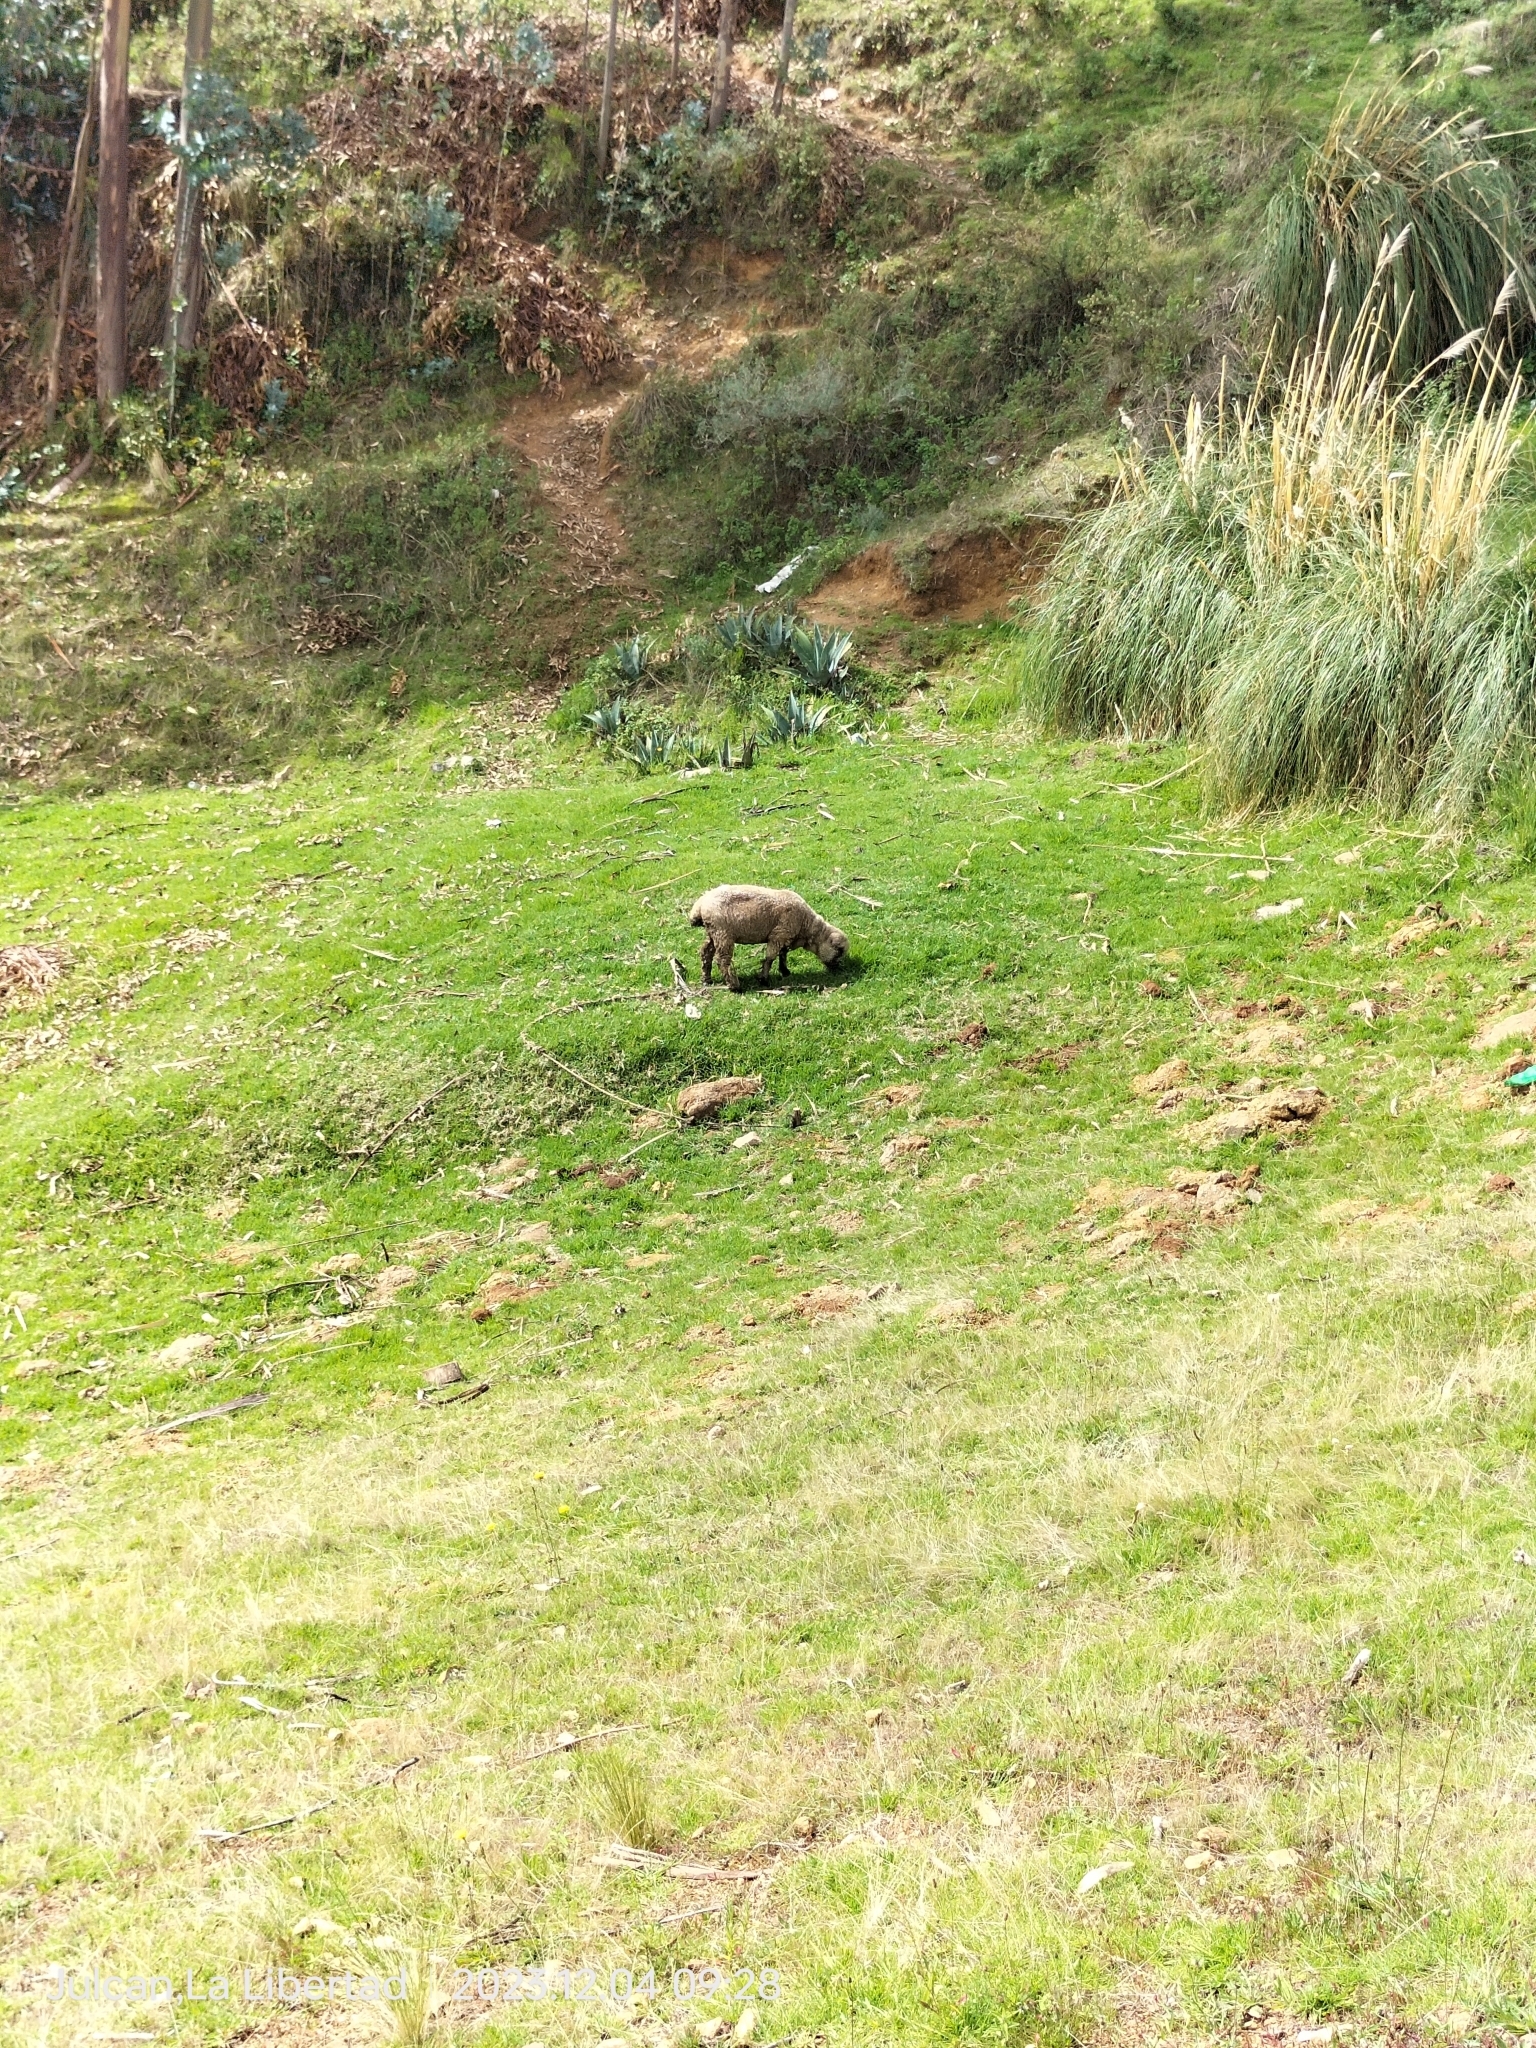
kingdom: Animalia
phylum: Chordata
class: Mammalia
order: Artiodactyla
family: Bovidae
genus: Ovis
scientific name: Ovis aries
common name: Domestic sheep
